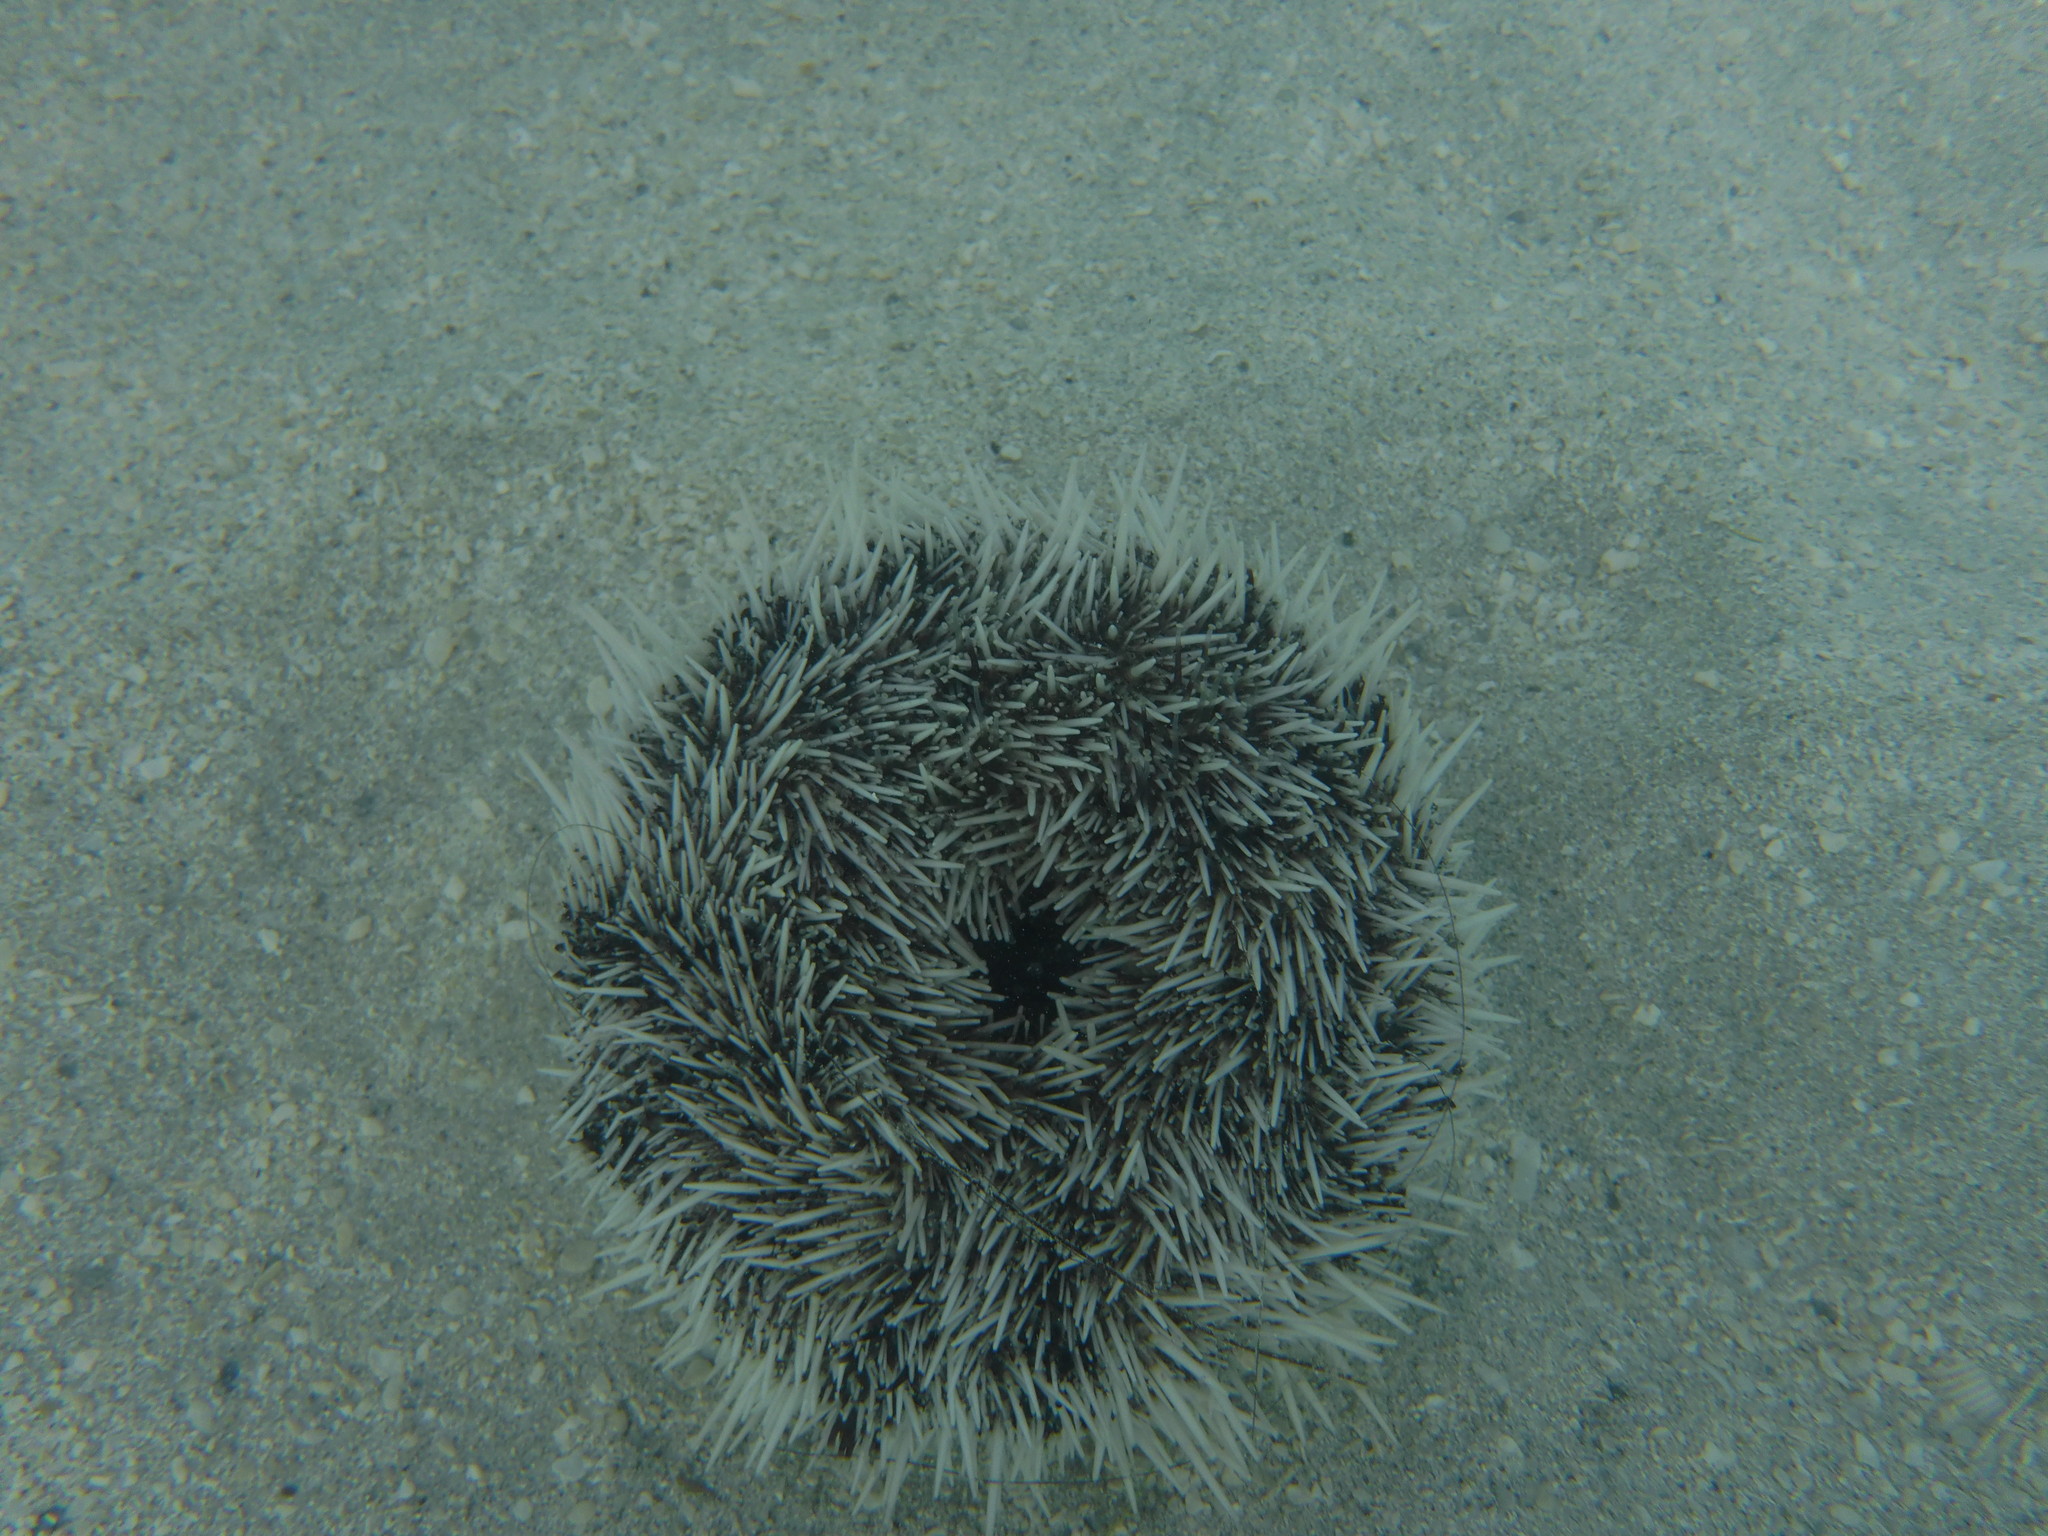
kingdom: Animalia
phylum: Echinodermata
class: Echinoidea
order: Camarodonta
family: Toxopneustidae
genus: Tripneustes
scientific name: Tripneustes ventricosus
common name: West indian sea egg
